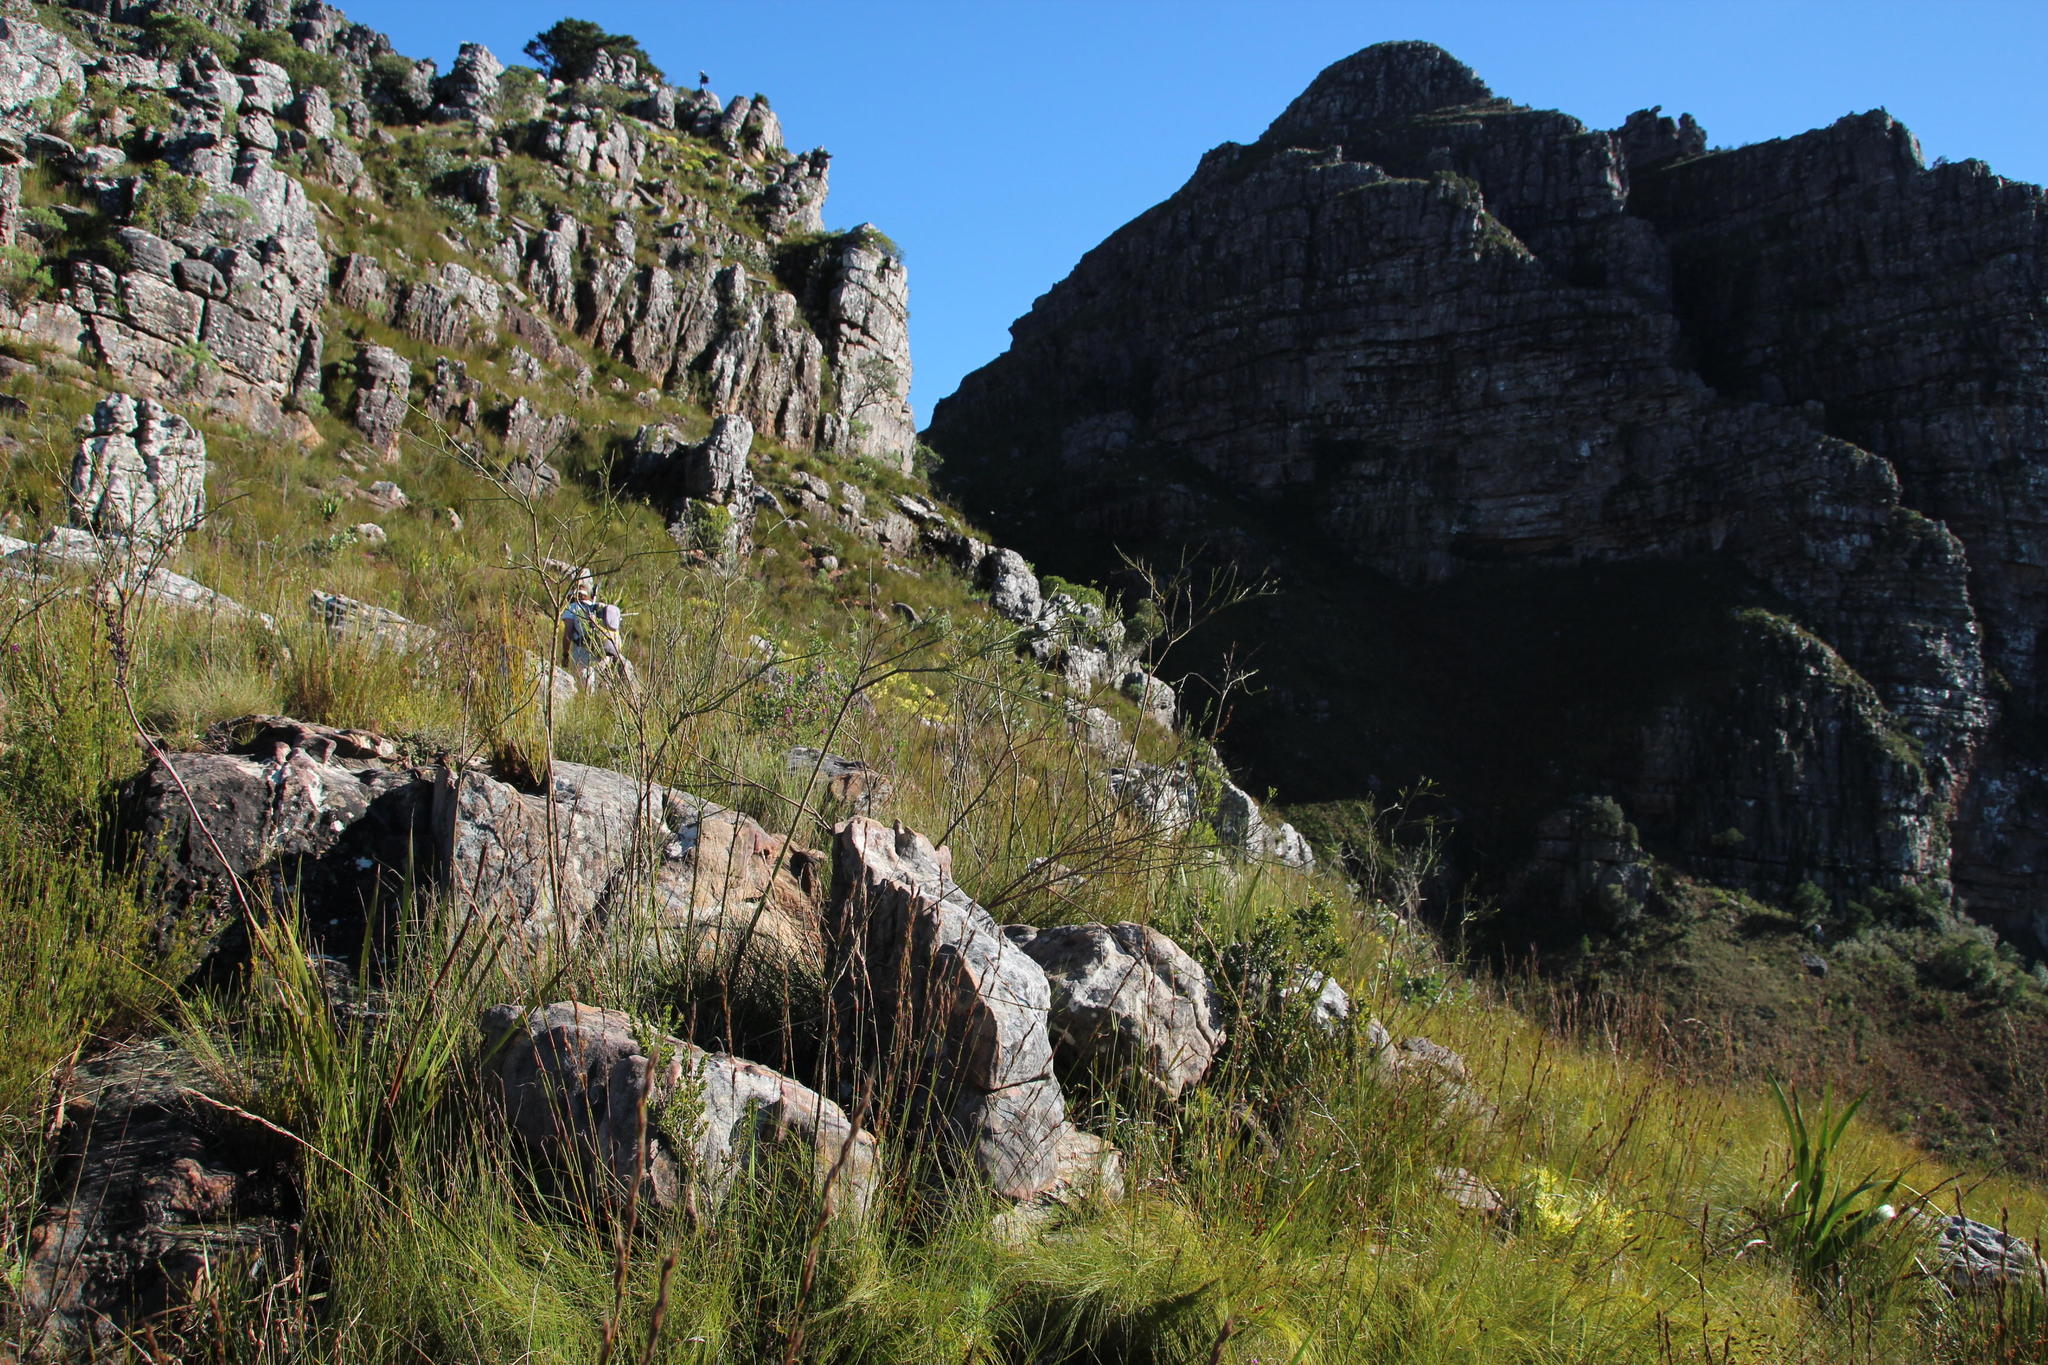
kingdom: Plantae
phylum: Tracheophyta
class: Magnoliopsida
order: Santalales
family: Thesiaceae
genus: Thesium
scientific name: Thesium strictum
